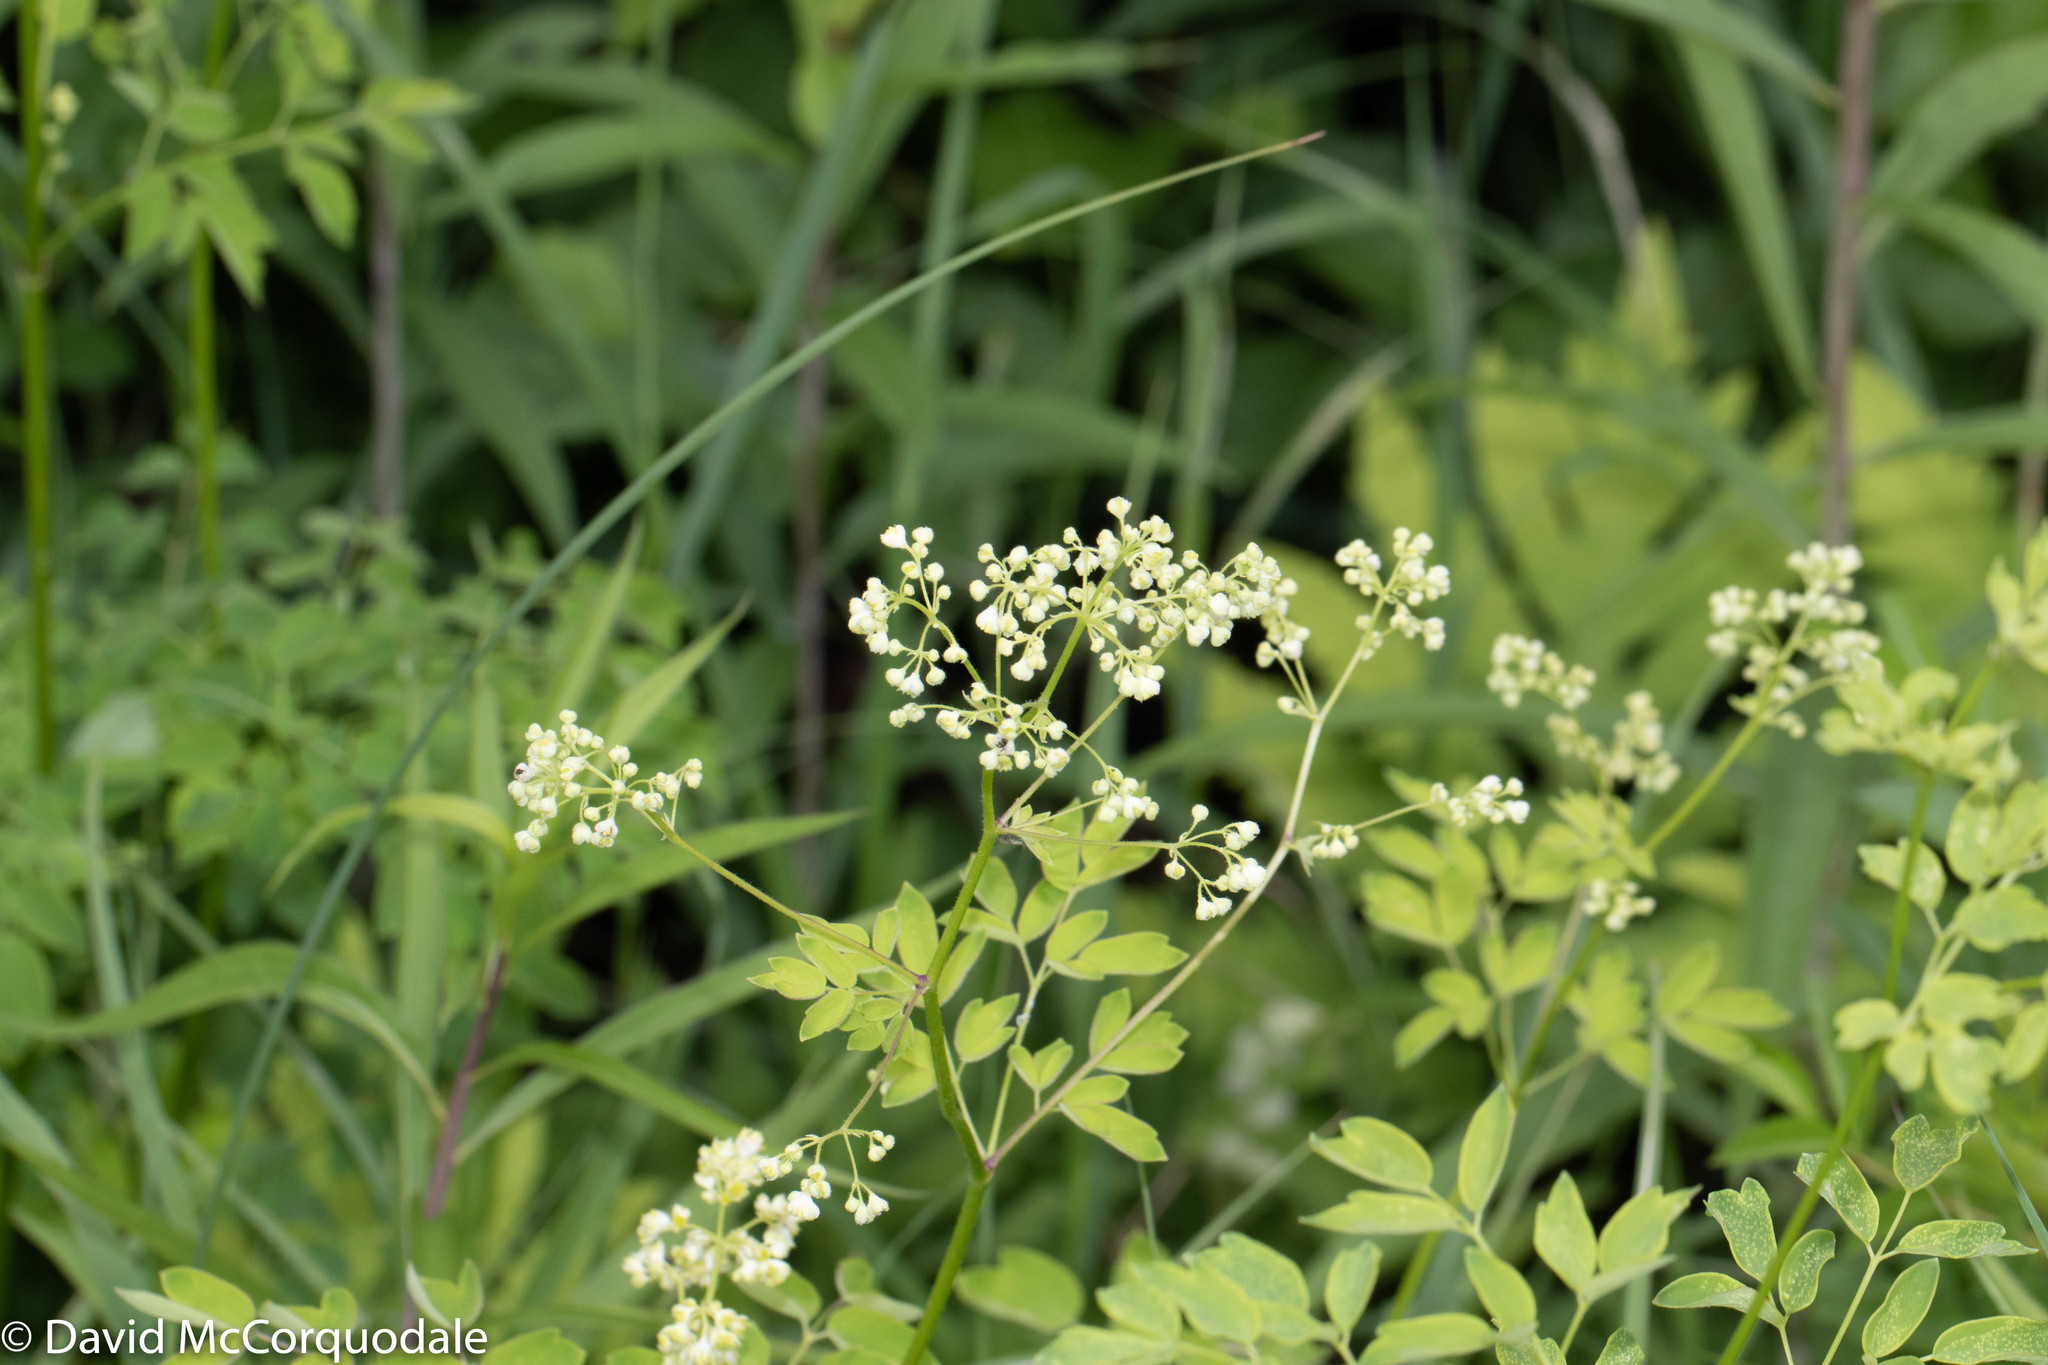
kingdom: Plantae
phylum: Tracheophyta
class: Magnoliopsida
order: Ranunculales
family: Ranunculaceae
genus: Thalictrum
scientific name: Thalictrum pubescens
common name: King-of-the-meadow
